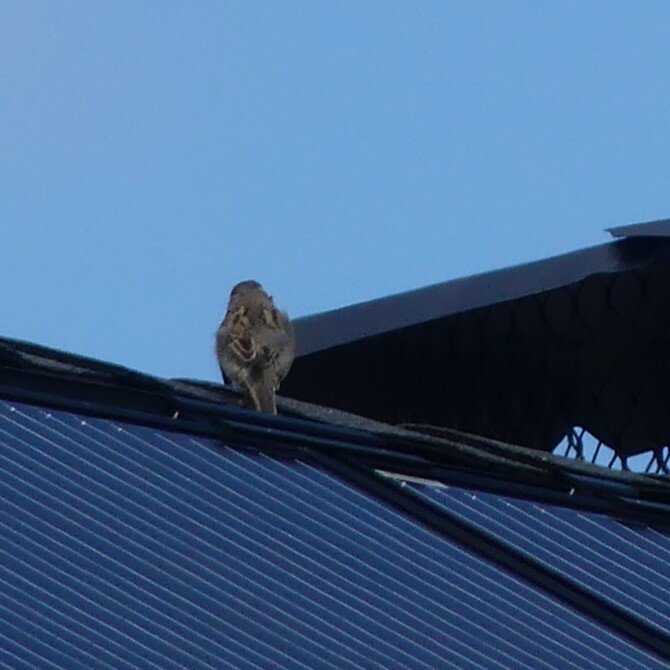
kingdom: Animalia
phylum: Chordata
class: Aves
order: Passeriformes
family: Passeridae
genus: Passer
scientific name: Passer domesticus
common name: House sparrow
